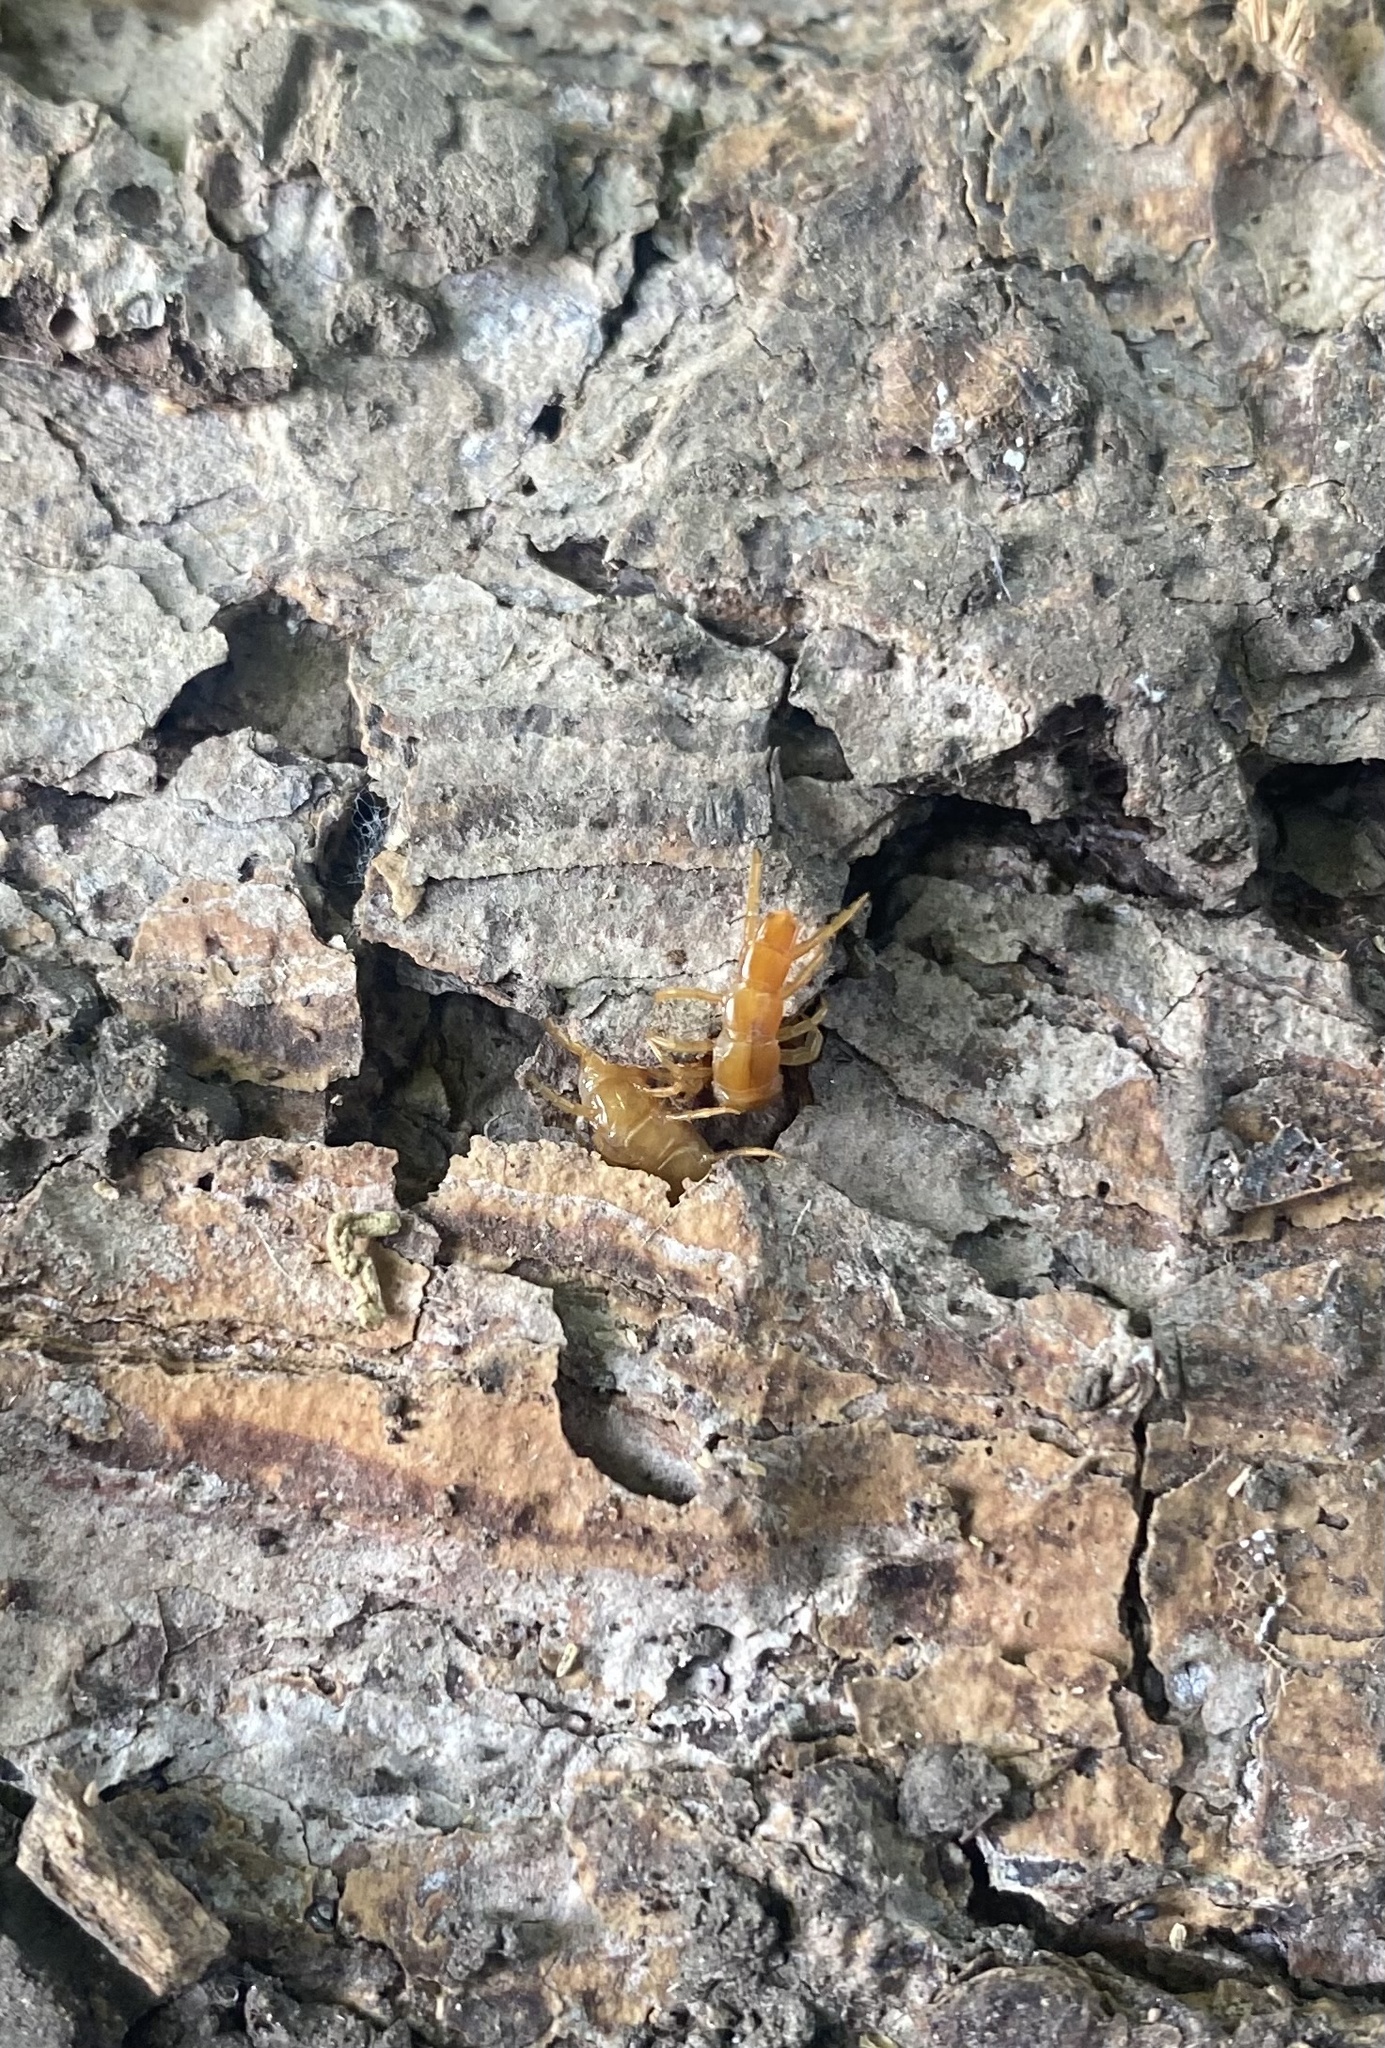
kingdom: Animalia
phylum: Arthropoda
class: Chilopoda
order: Scolopendromorpha
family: Cryptopidae
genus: Cryptops
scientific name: Cryptops
